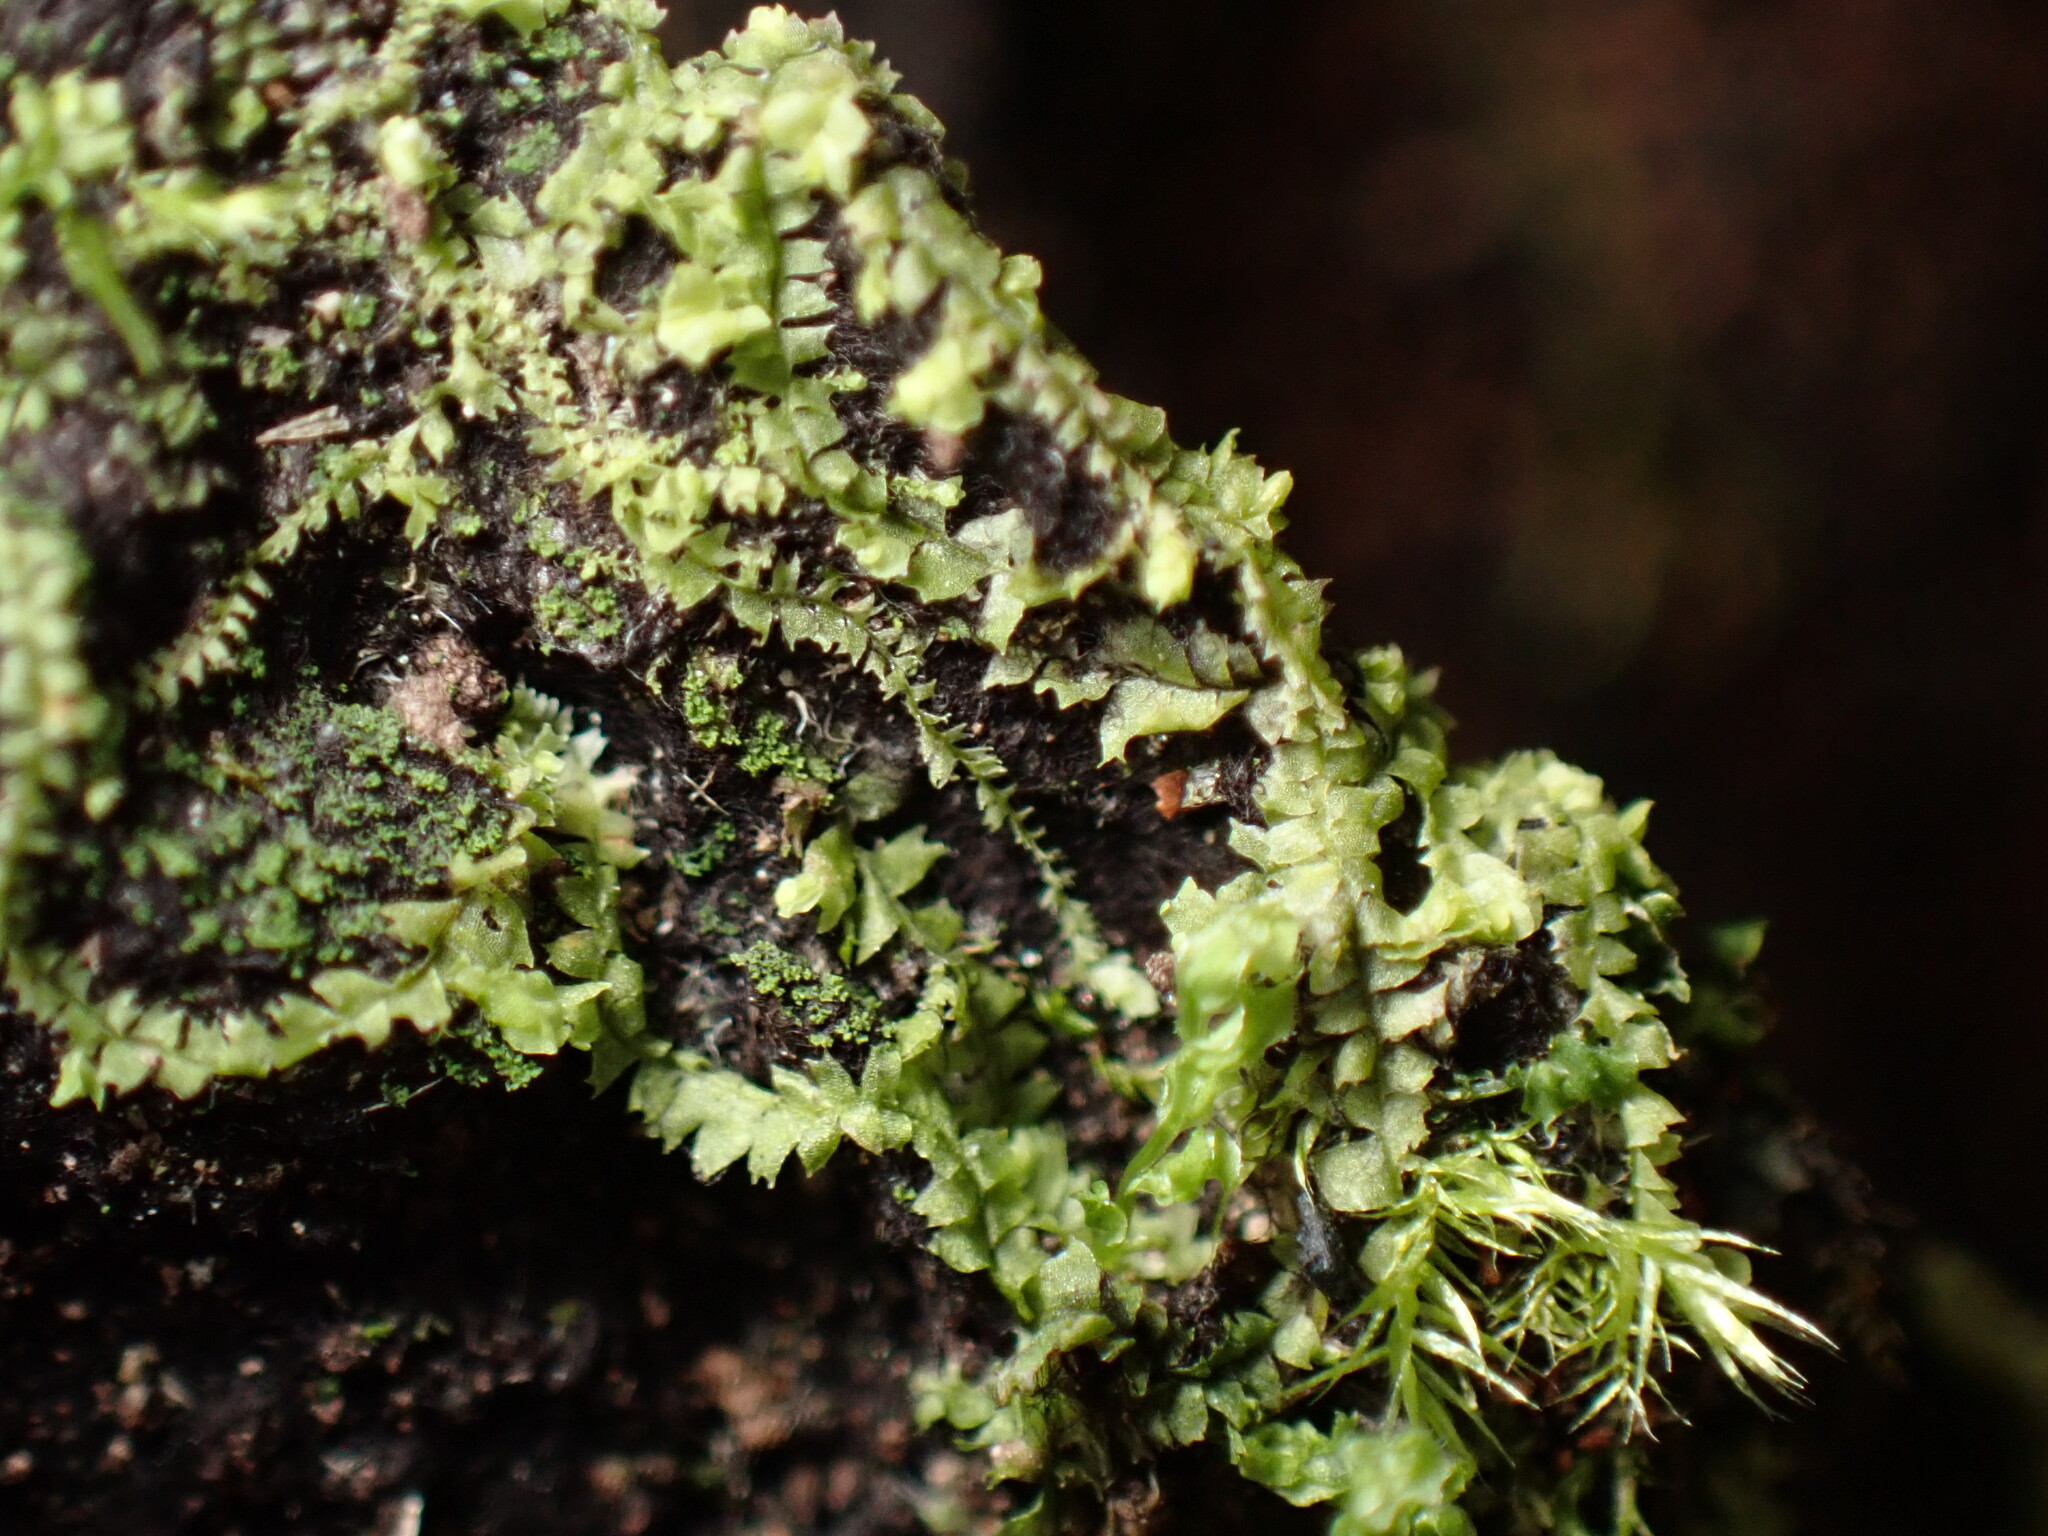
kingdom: Plantae
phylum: Marchantiophyta
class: Jungermanniopsida
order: Jungermanniales
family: Lophocoleaceae
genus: Lophocolea
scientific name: Lophocolea heterophylla
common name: Variable-leaved crestwort
